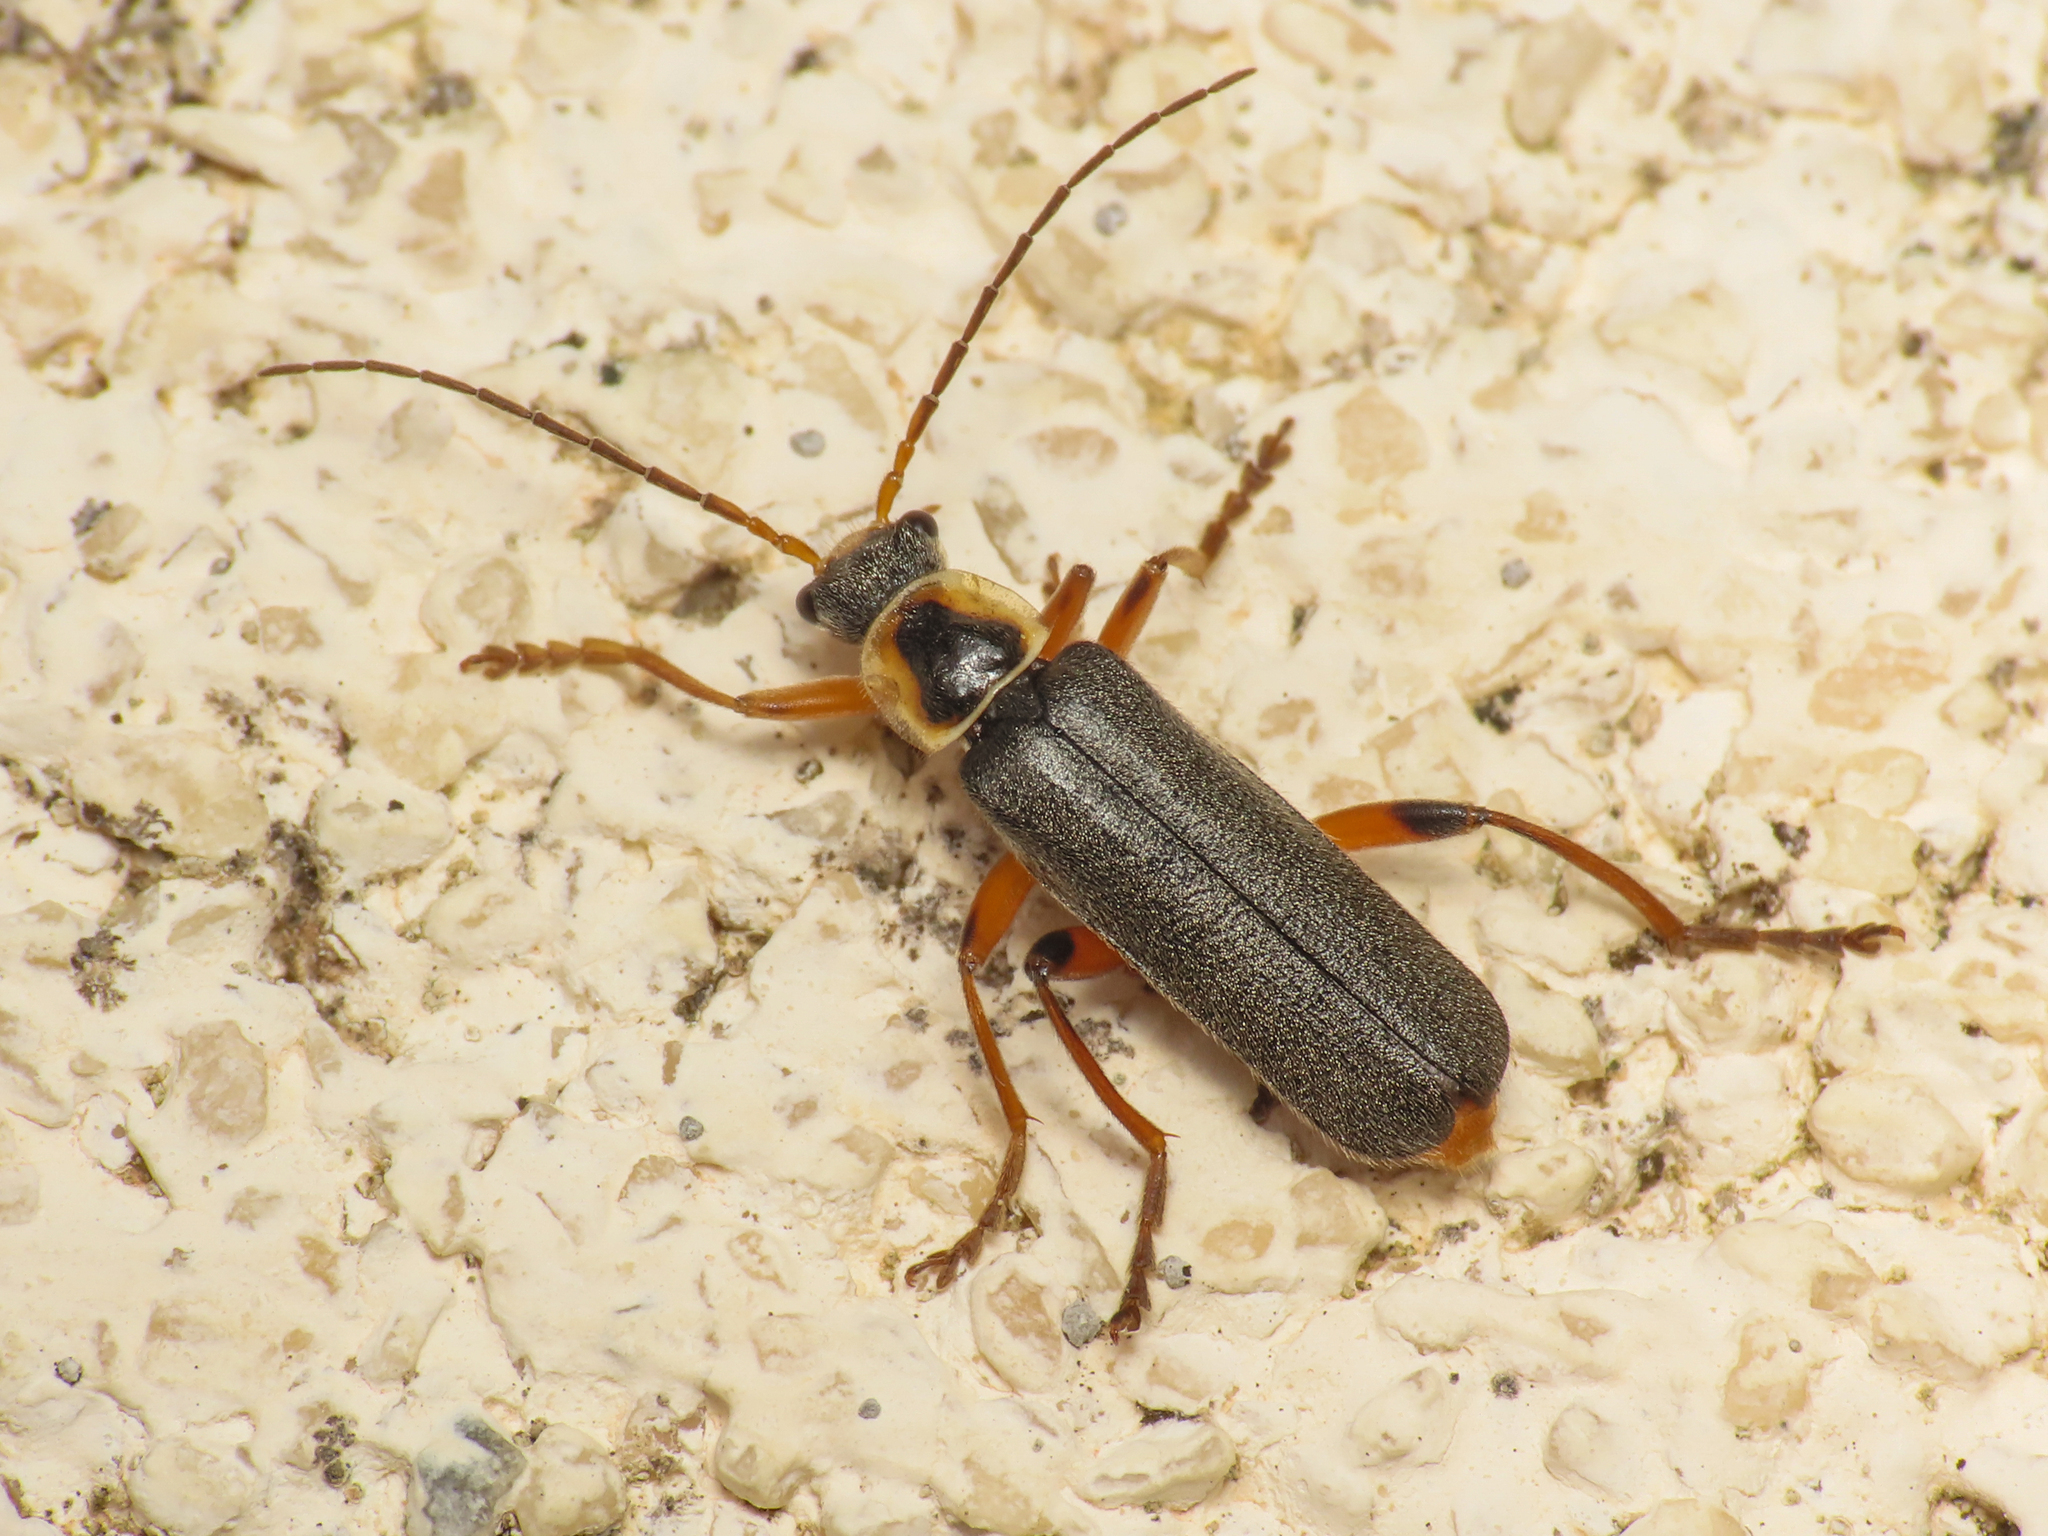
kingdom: Animalia
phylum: Arthropoda
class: Insecta
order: Coleoptera
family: Cantharidae
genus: Cantharis
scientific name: Cantharis nigricans
